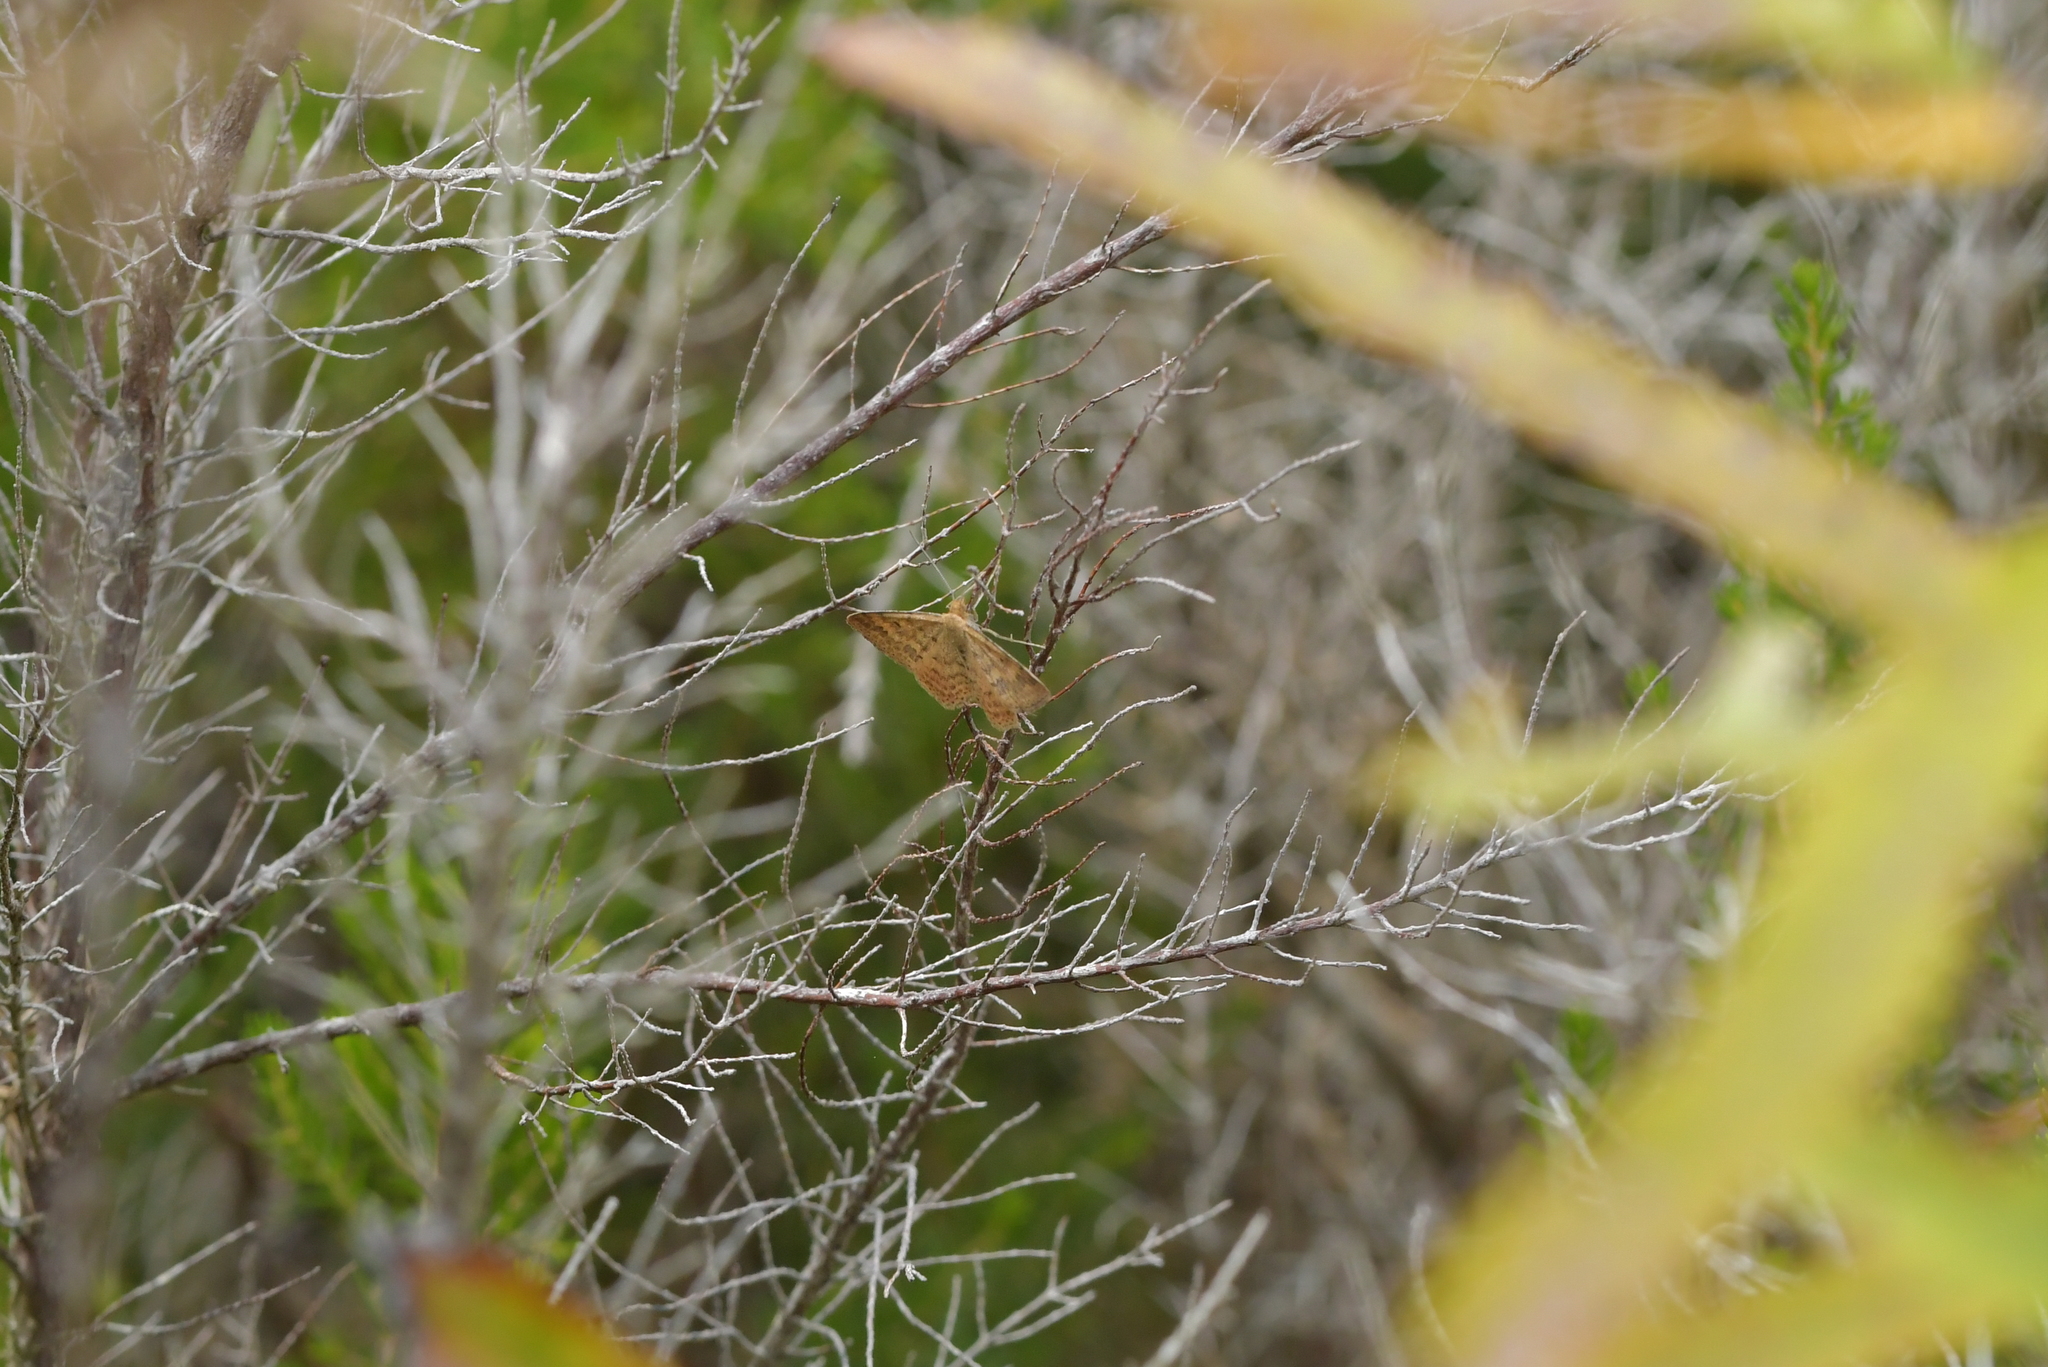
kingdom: Animalia
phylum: Arthropoda
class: Insecta
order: Lepidoptera
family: Geometridae
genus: Scopula
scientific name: Scopula rubraria
